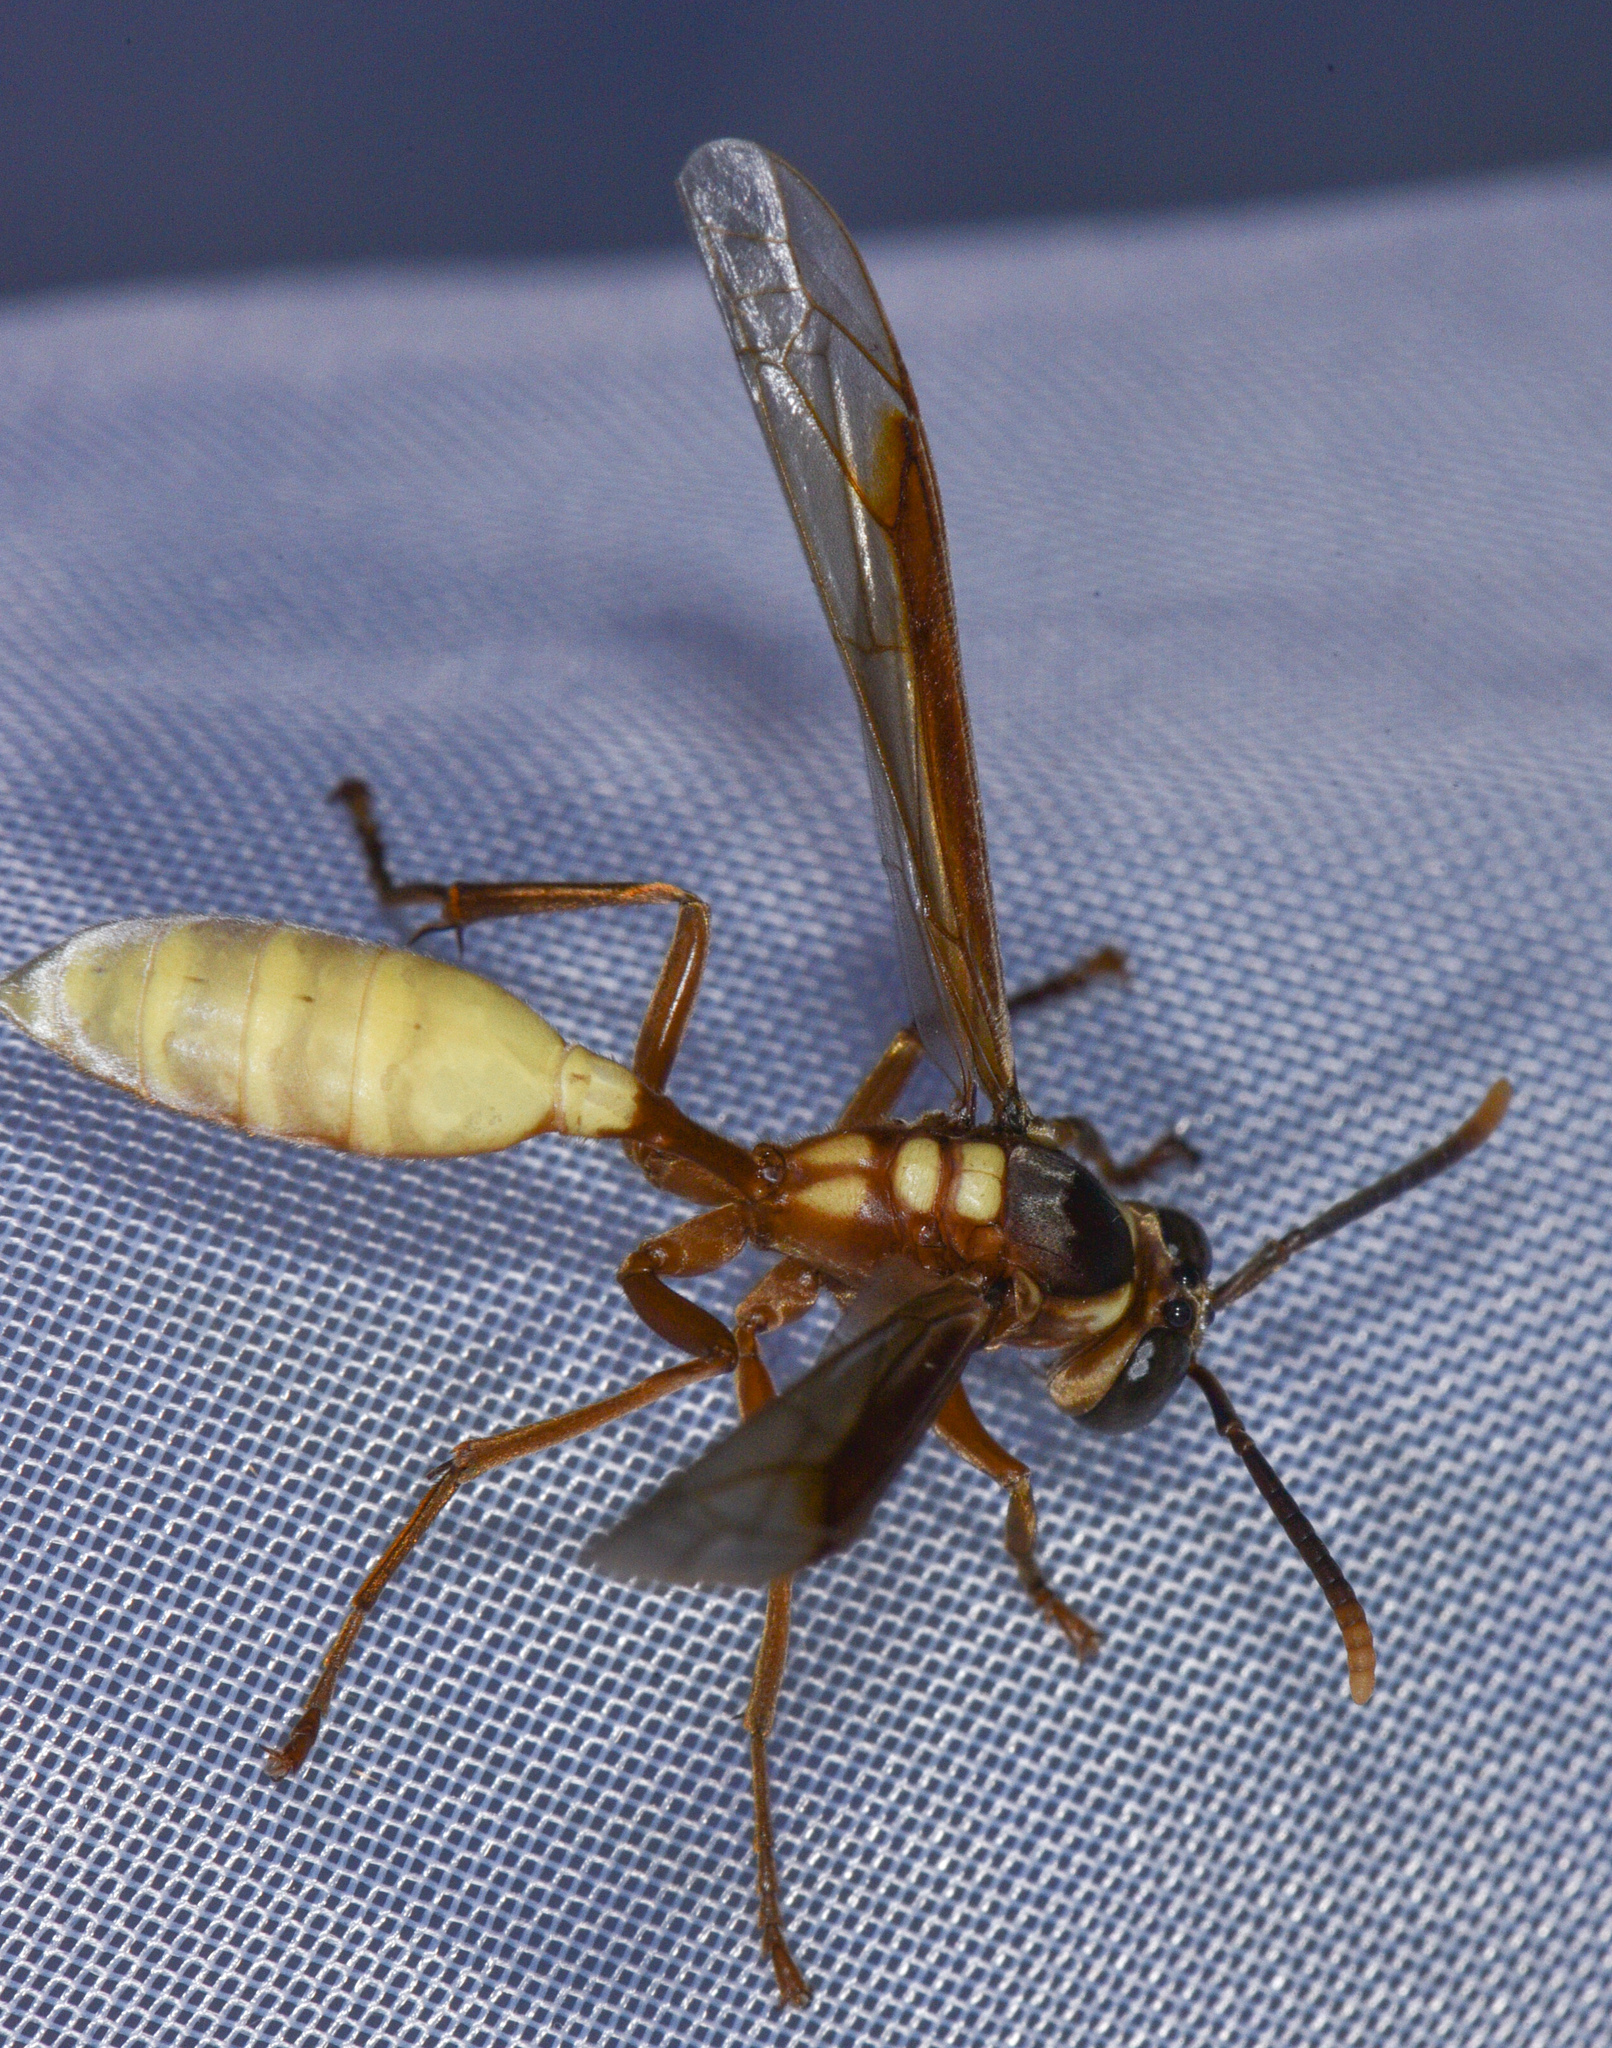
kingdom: Animalia
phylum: Arthropoda
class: Insecta
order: Hymenoptera
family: Vespidae
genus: Apoica
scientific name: Apoica pallens
